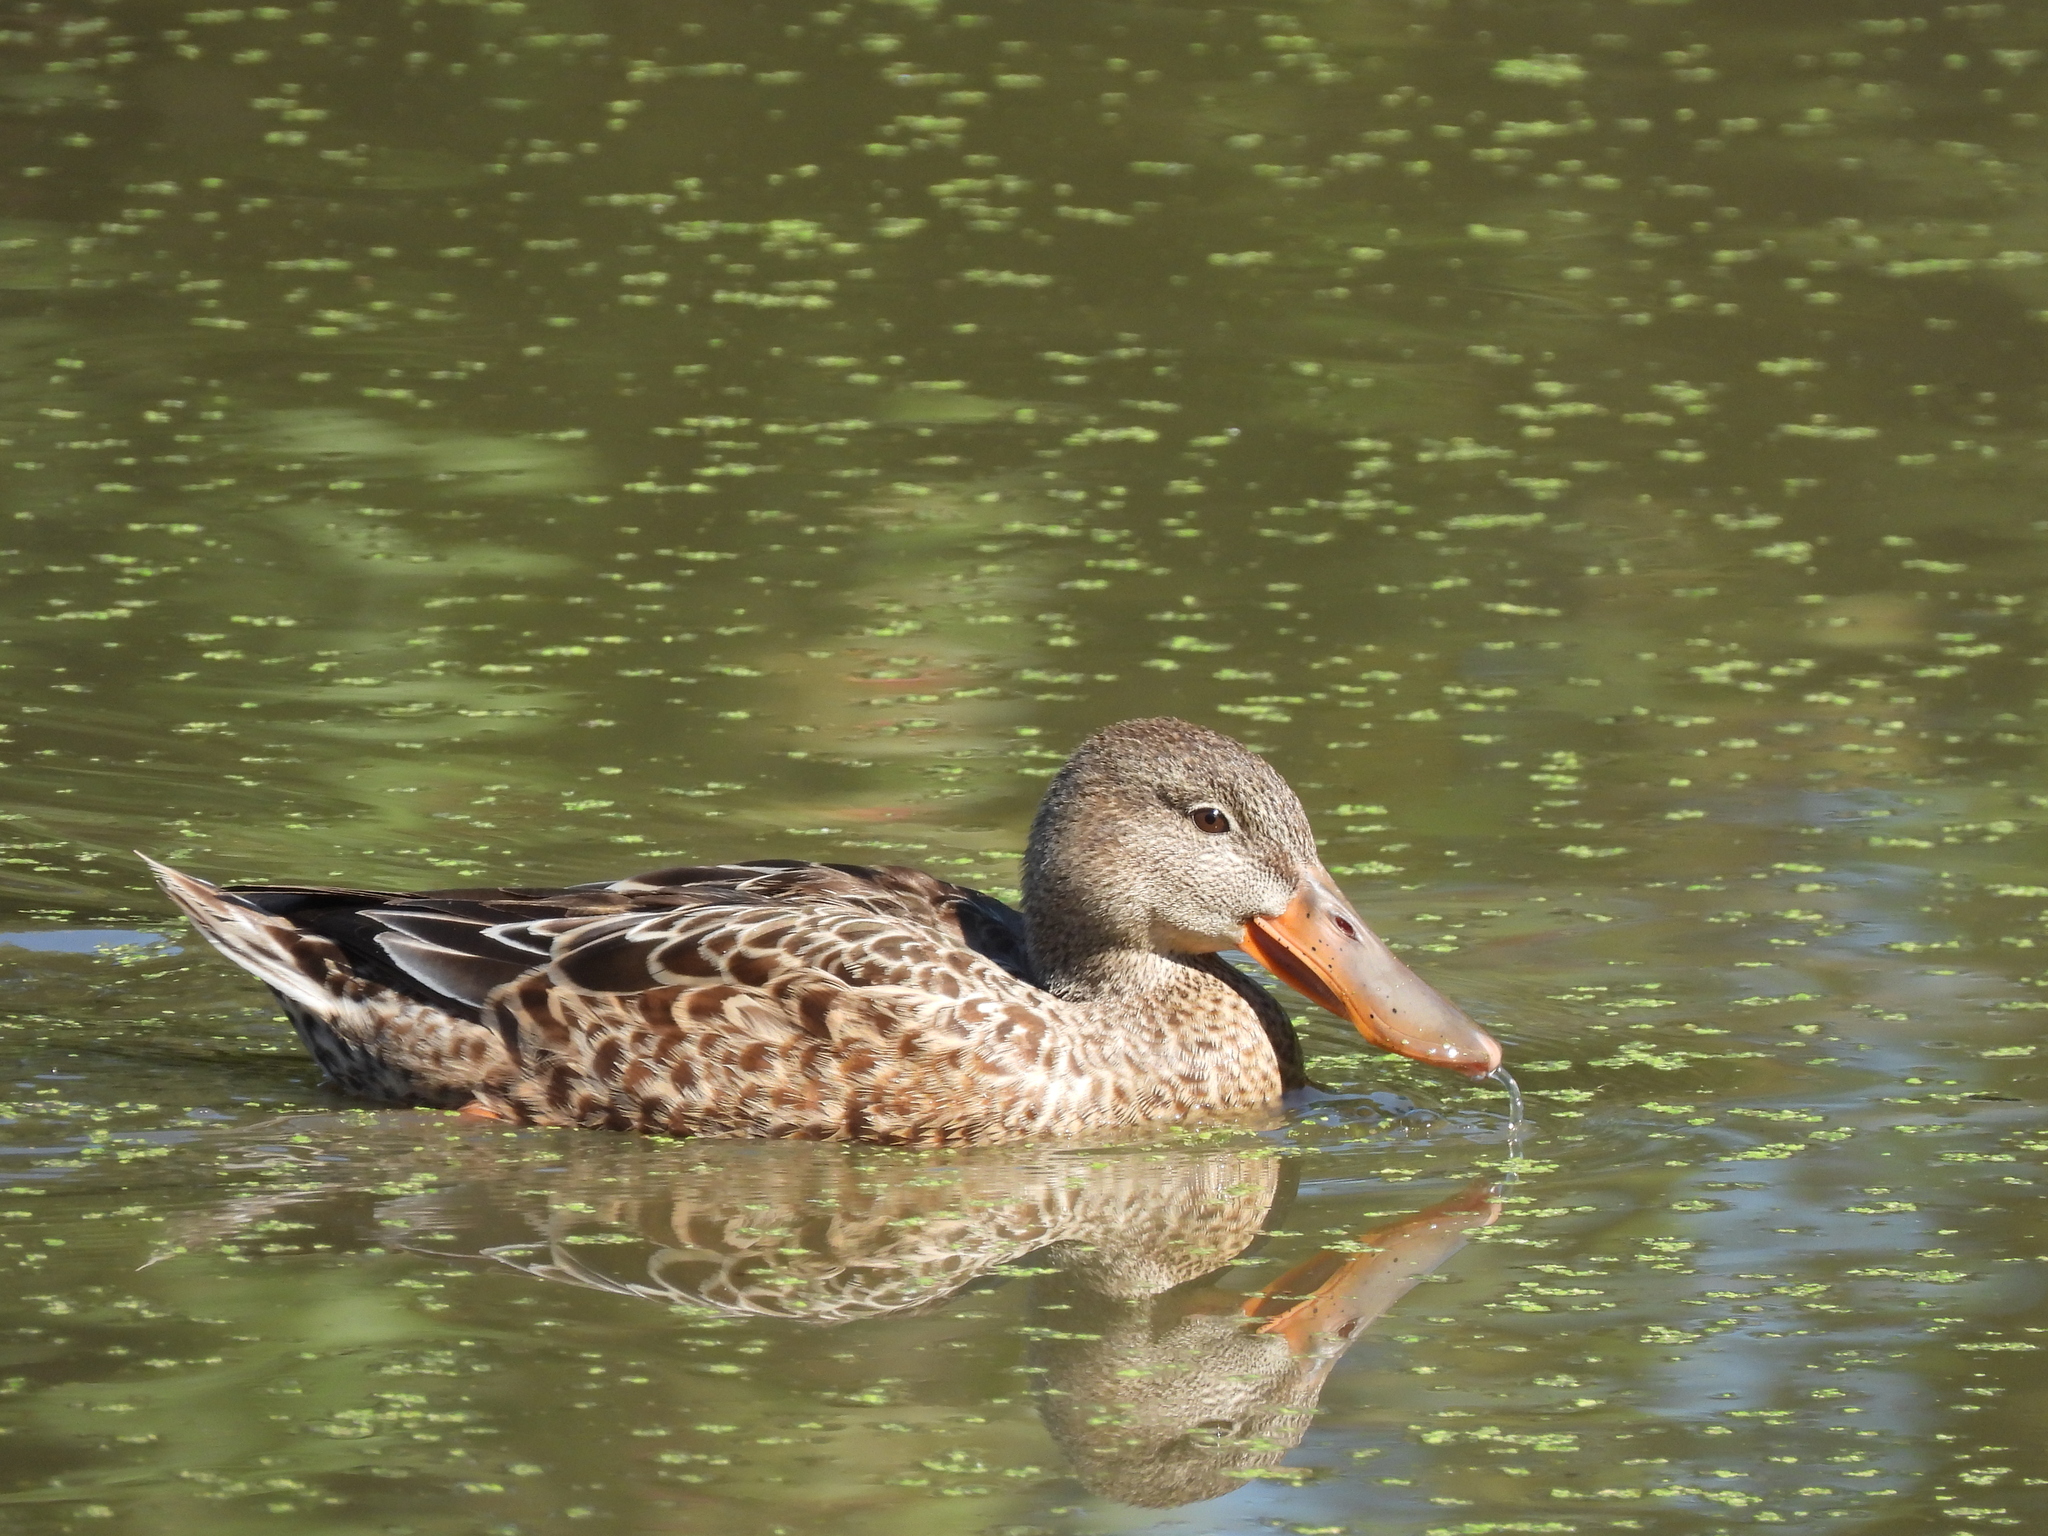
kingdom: Animalia
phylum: Chordata
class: Aves
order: Anseriformes
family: Anatidae
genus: Spatula
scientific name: Spatula clypeata
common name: Northern shoveler
